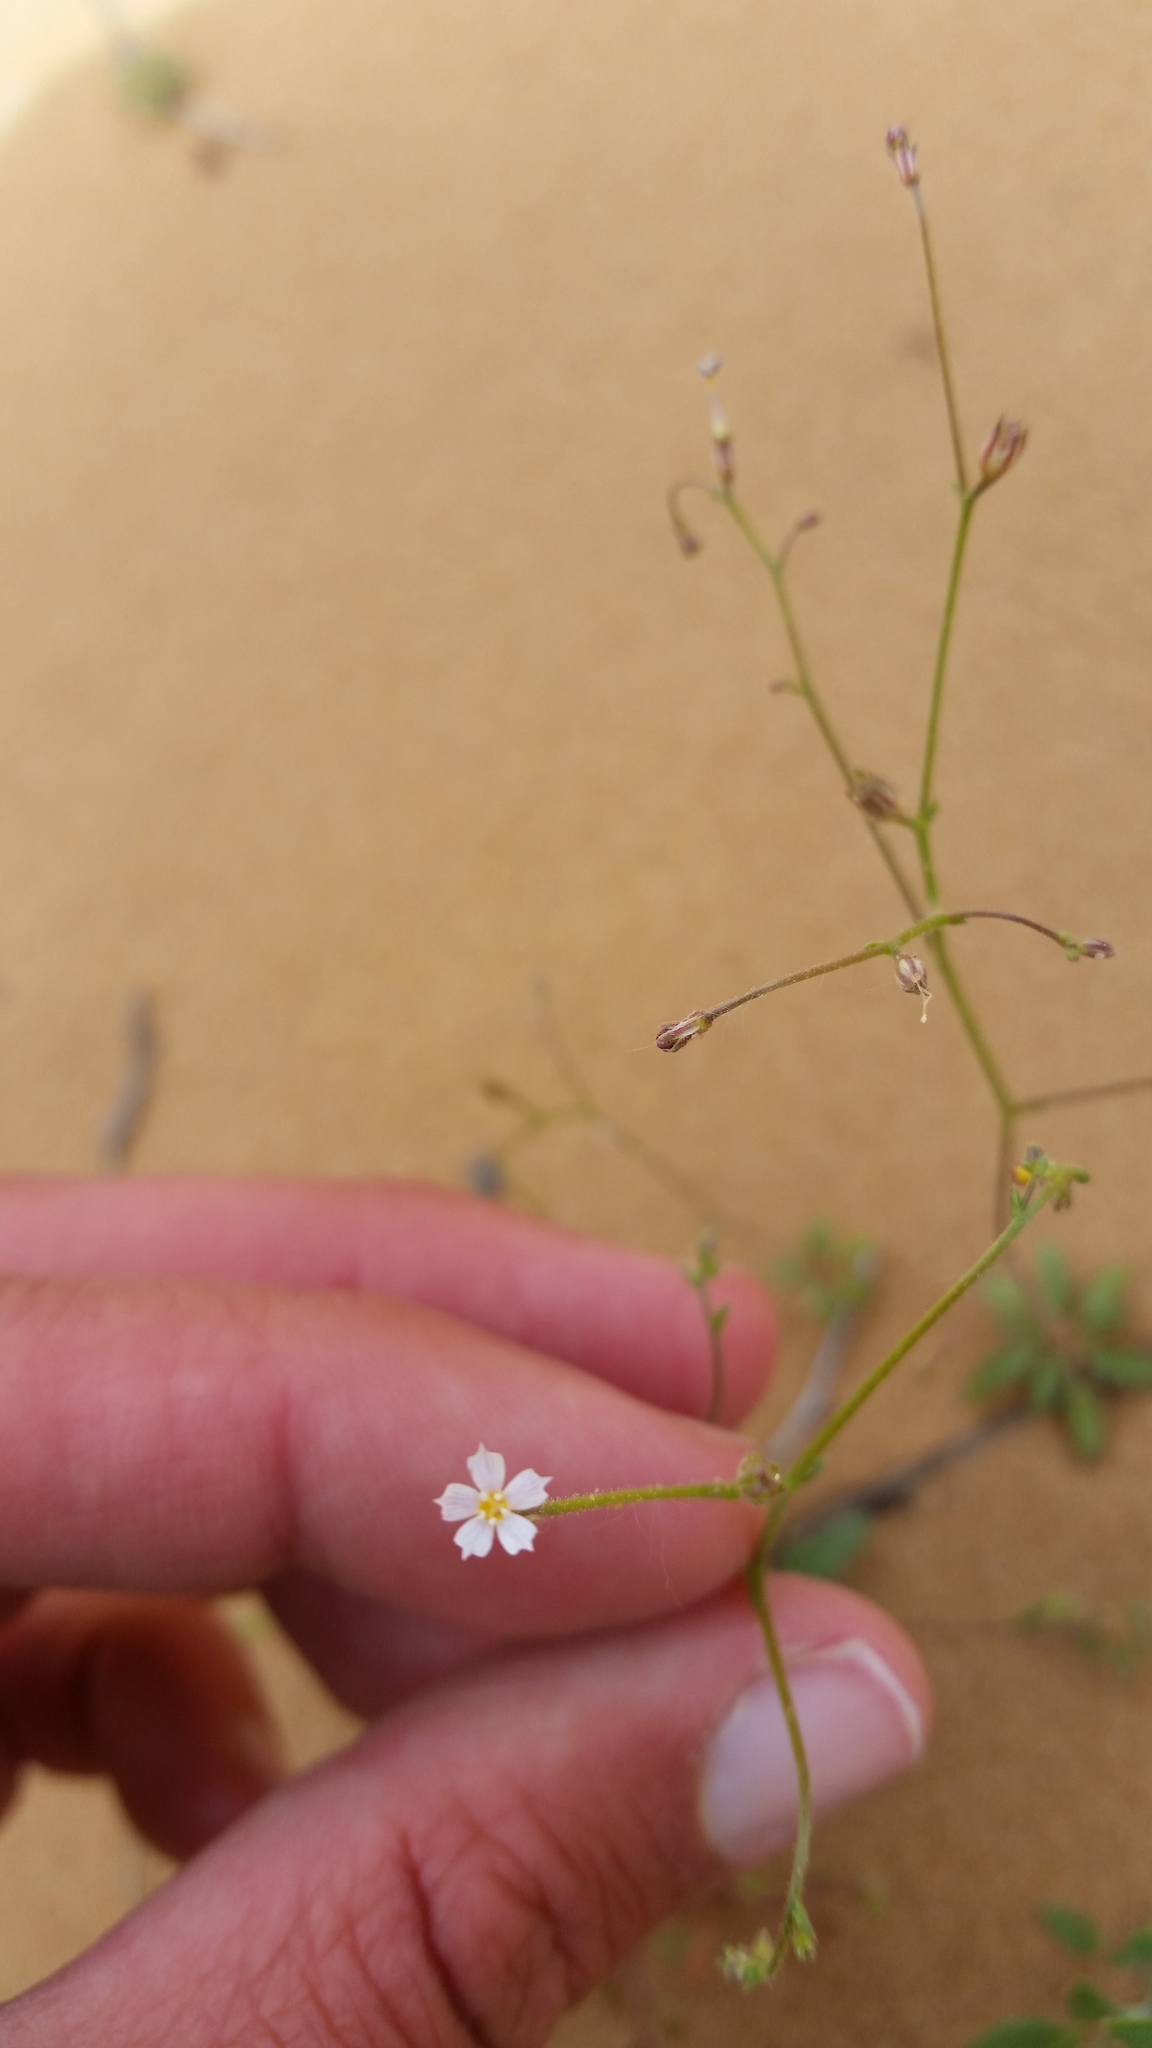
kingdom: Plantae
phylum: Tracheophyta
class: Magnoliopsida
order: Ericales
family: Polemoniaceae
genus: Aliciella
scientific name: Aliciella leptomeria
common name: Sand gilia
